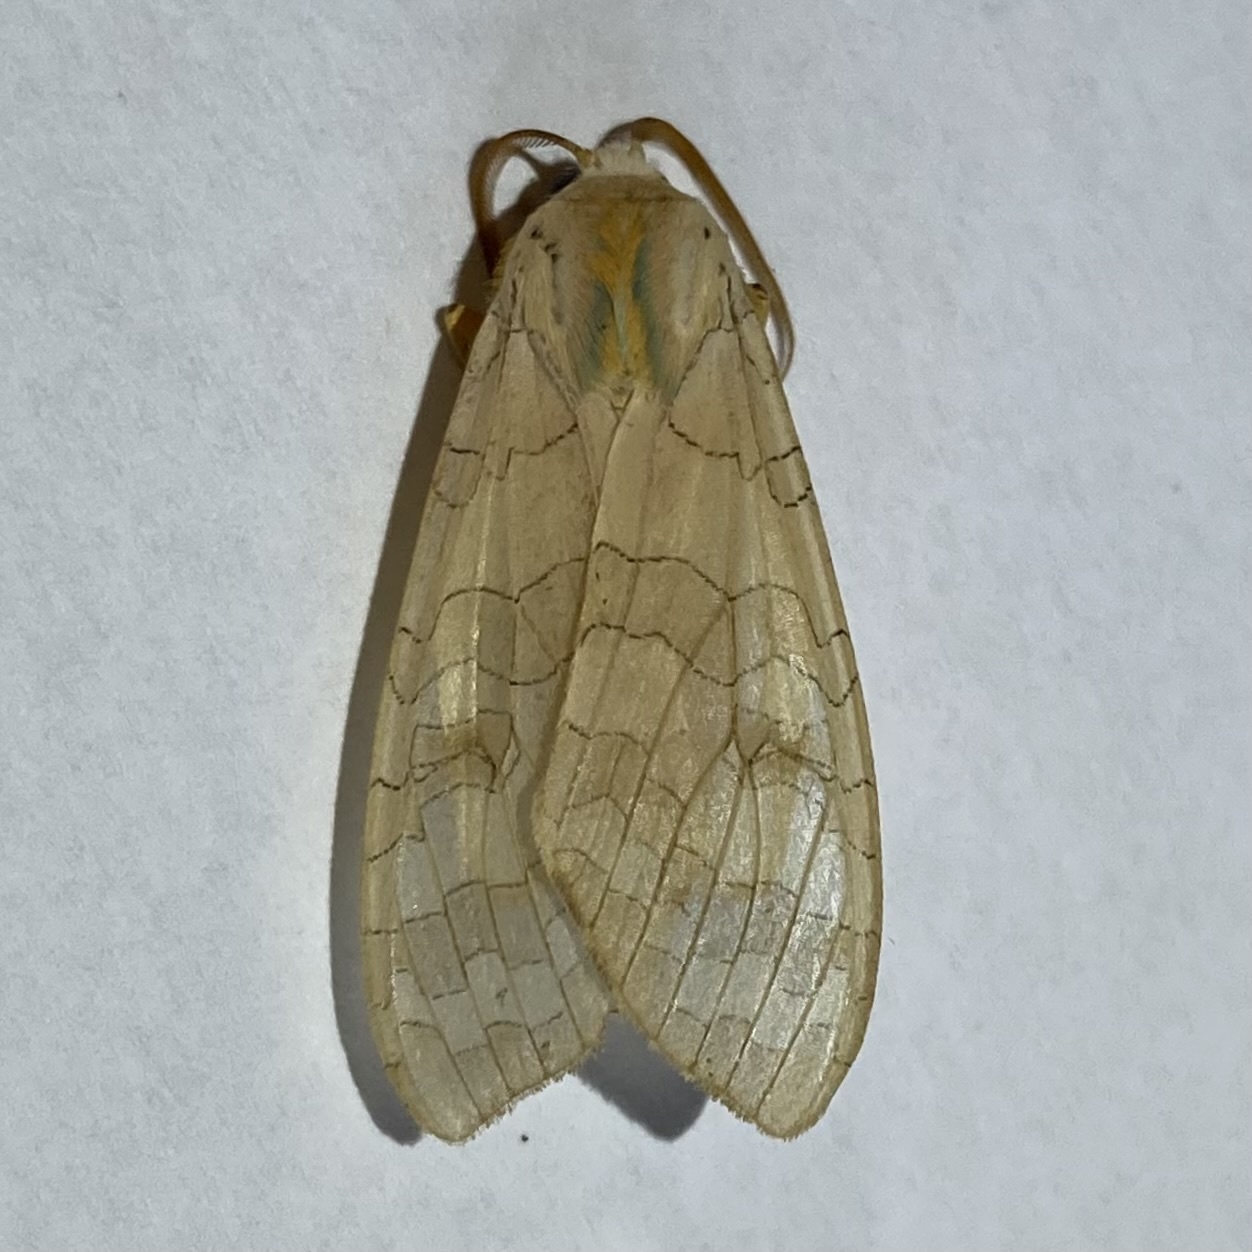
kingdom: Animalia
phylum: Arthropoda
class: Insecta
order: Lepidoptera
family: Erebidae
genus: Halysidota
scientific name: Halysidota tessellaris
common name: Banded tussock moth
